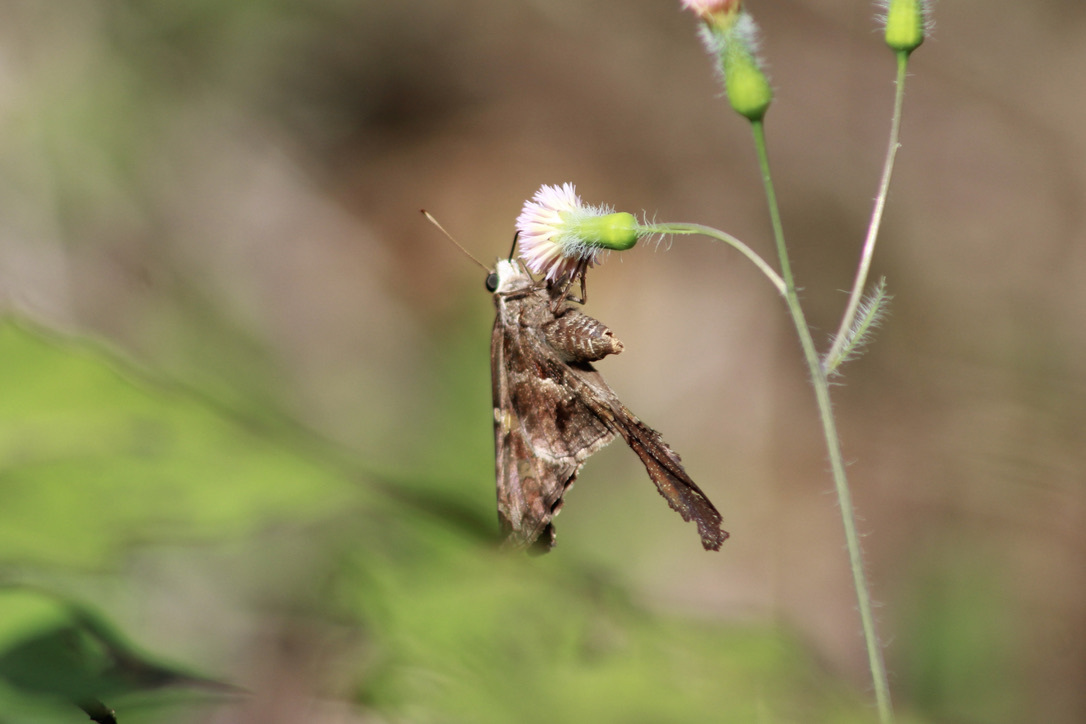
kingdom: Animalia
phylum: Arthropoda
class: Insecta
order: Lepidoptera
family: Hesperiidae
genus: Chioides
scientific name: Chioides catillus
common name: Silverbanded skipper
